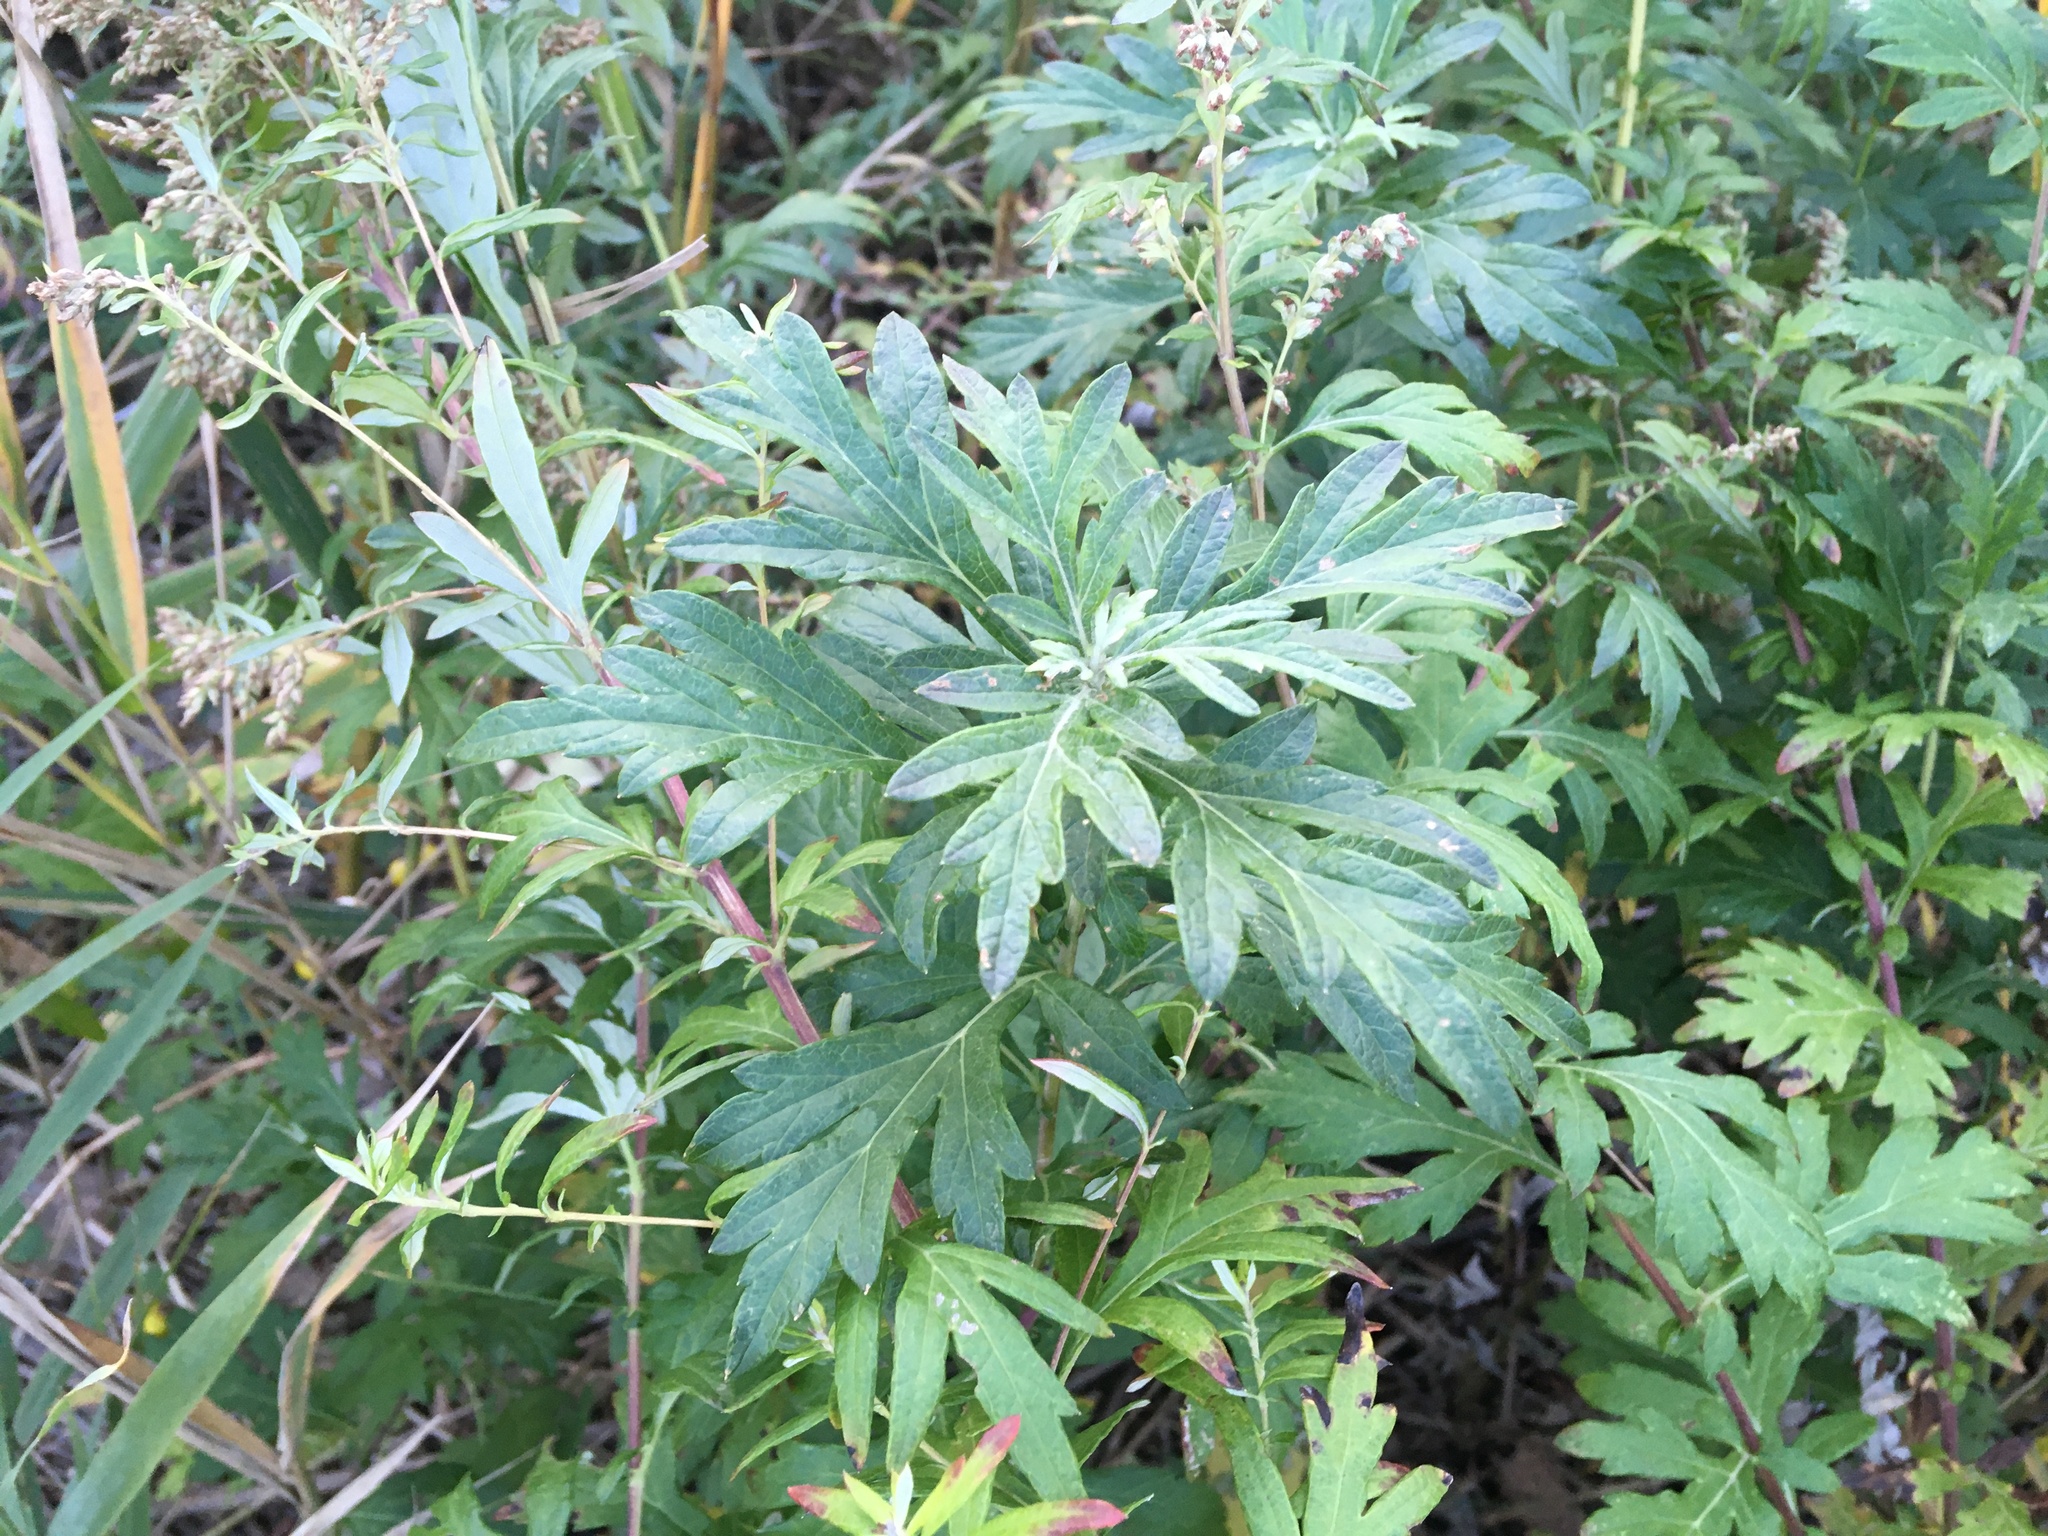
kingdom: Plantae
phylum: Tracheophyta
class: Magnoliopsida
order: Asterales
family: Asteraceae
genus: Artemisia
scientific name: Artemisia vulgaris
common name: Mugwort
